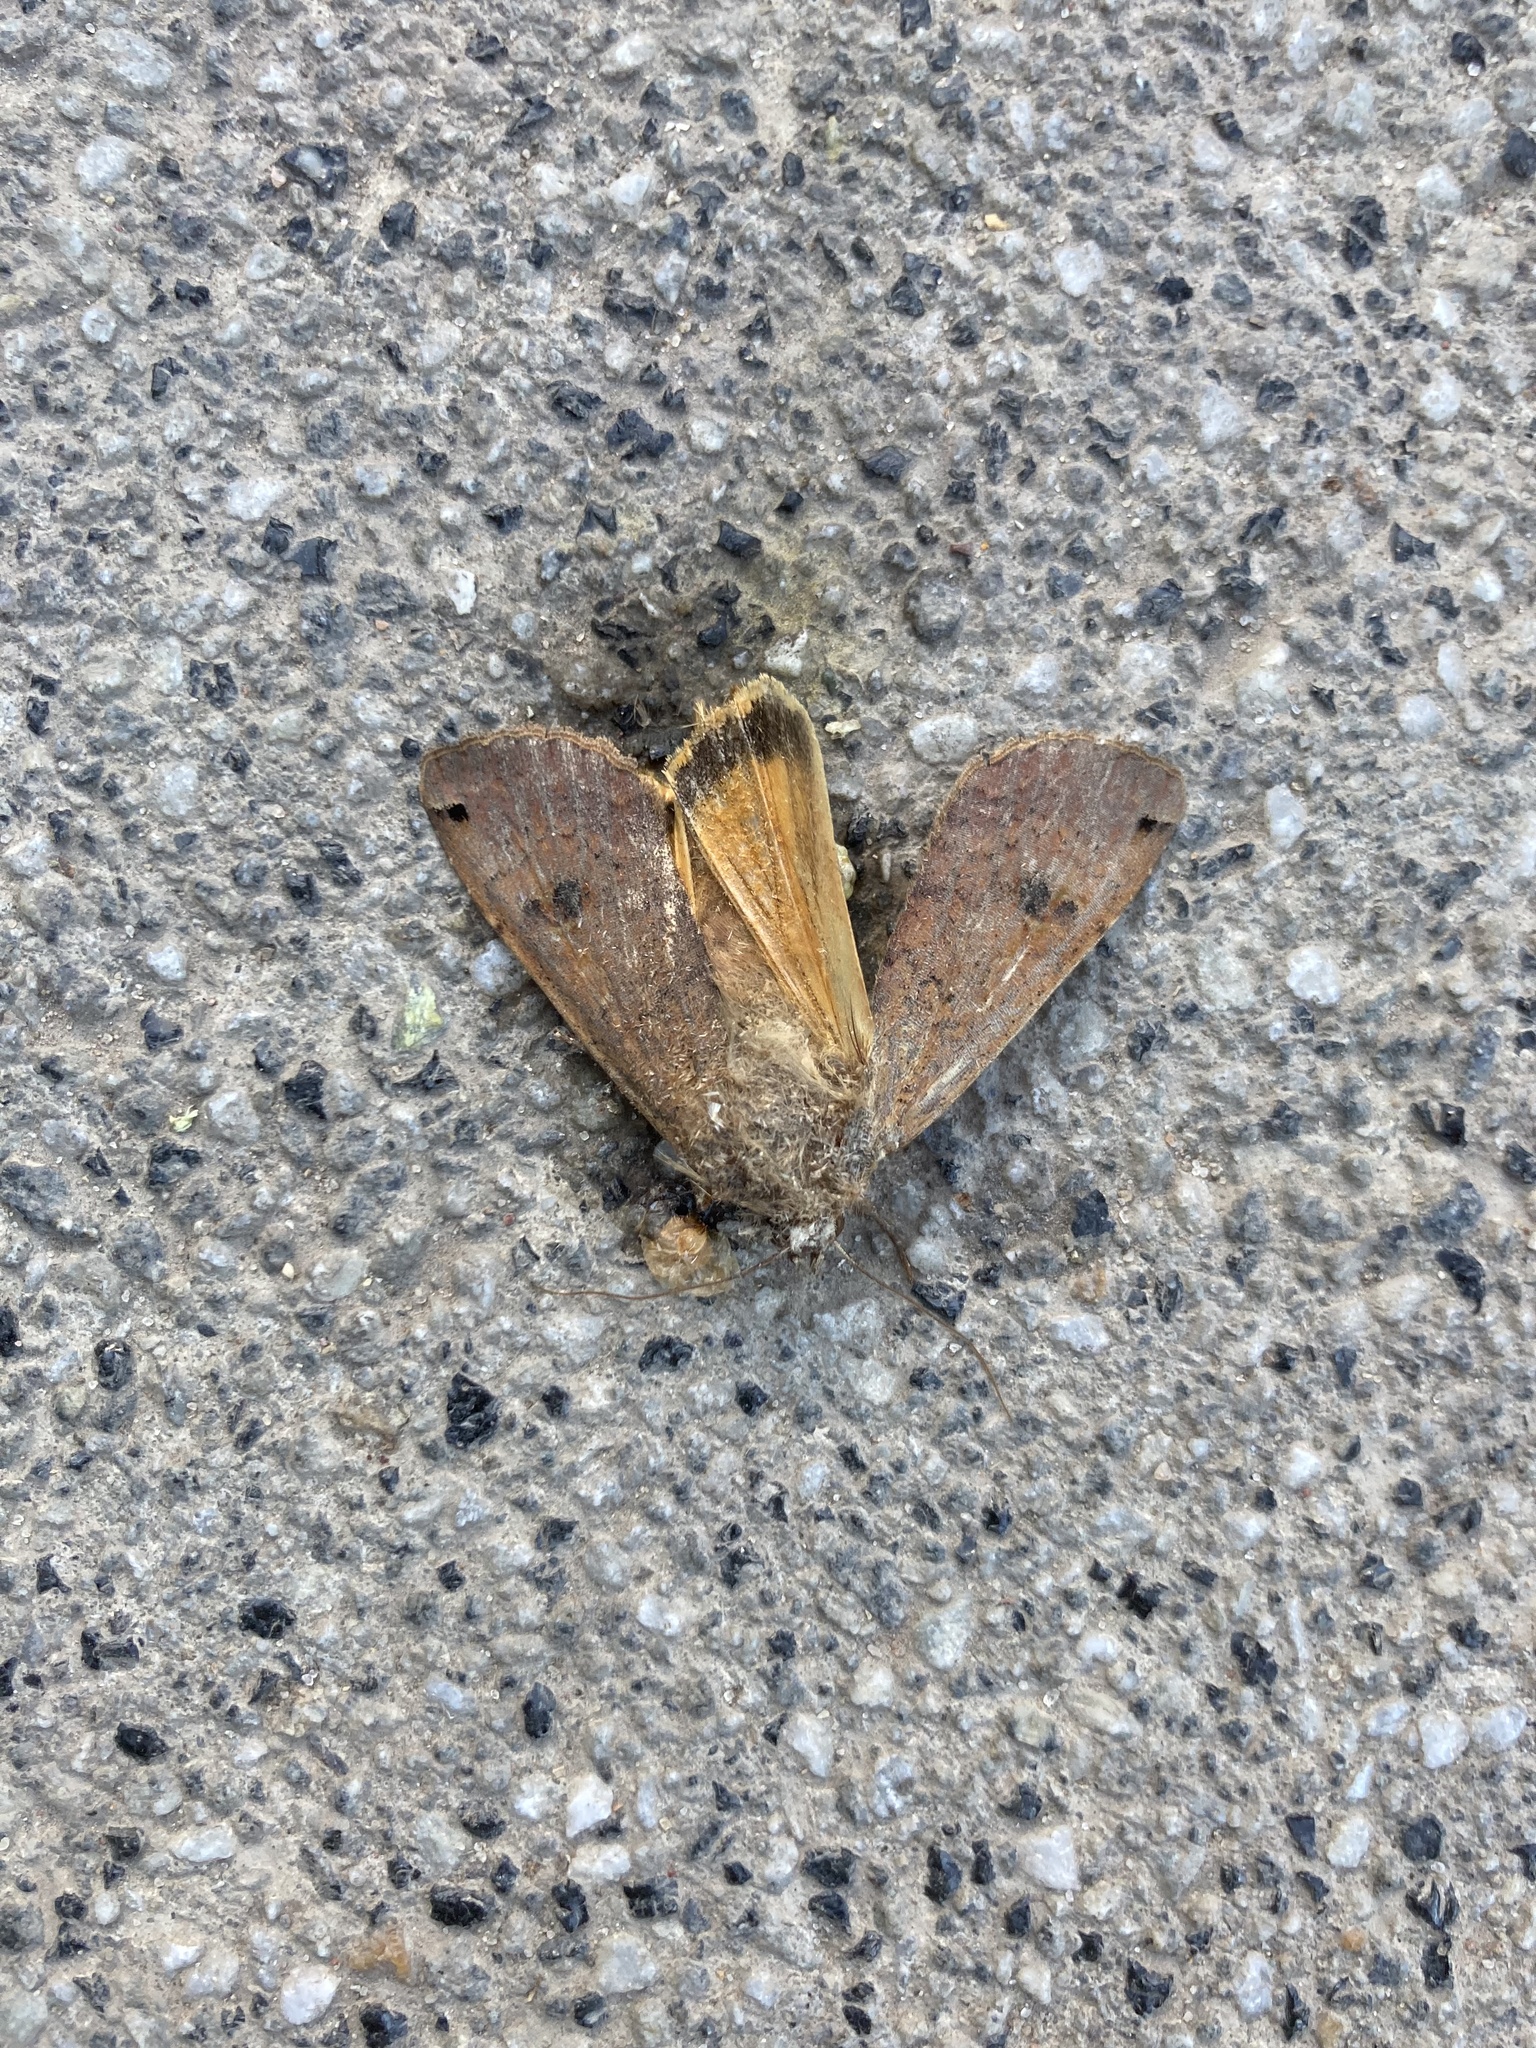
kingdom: Animalia
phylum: Arthropoda
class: Insecta
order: Lepidoptera
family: Noctuidae
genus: Noctua
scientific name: Noctua pronuba
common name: Large yellow underwing
